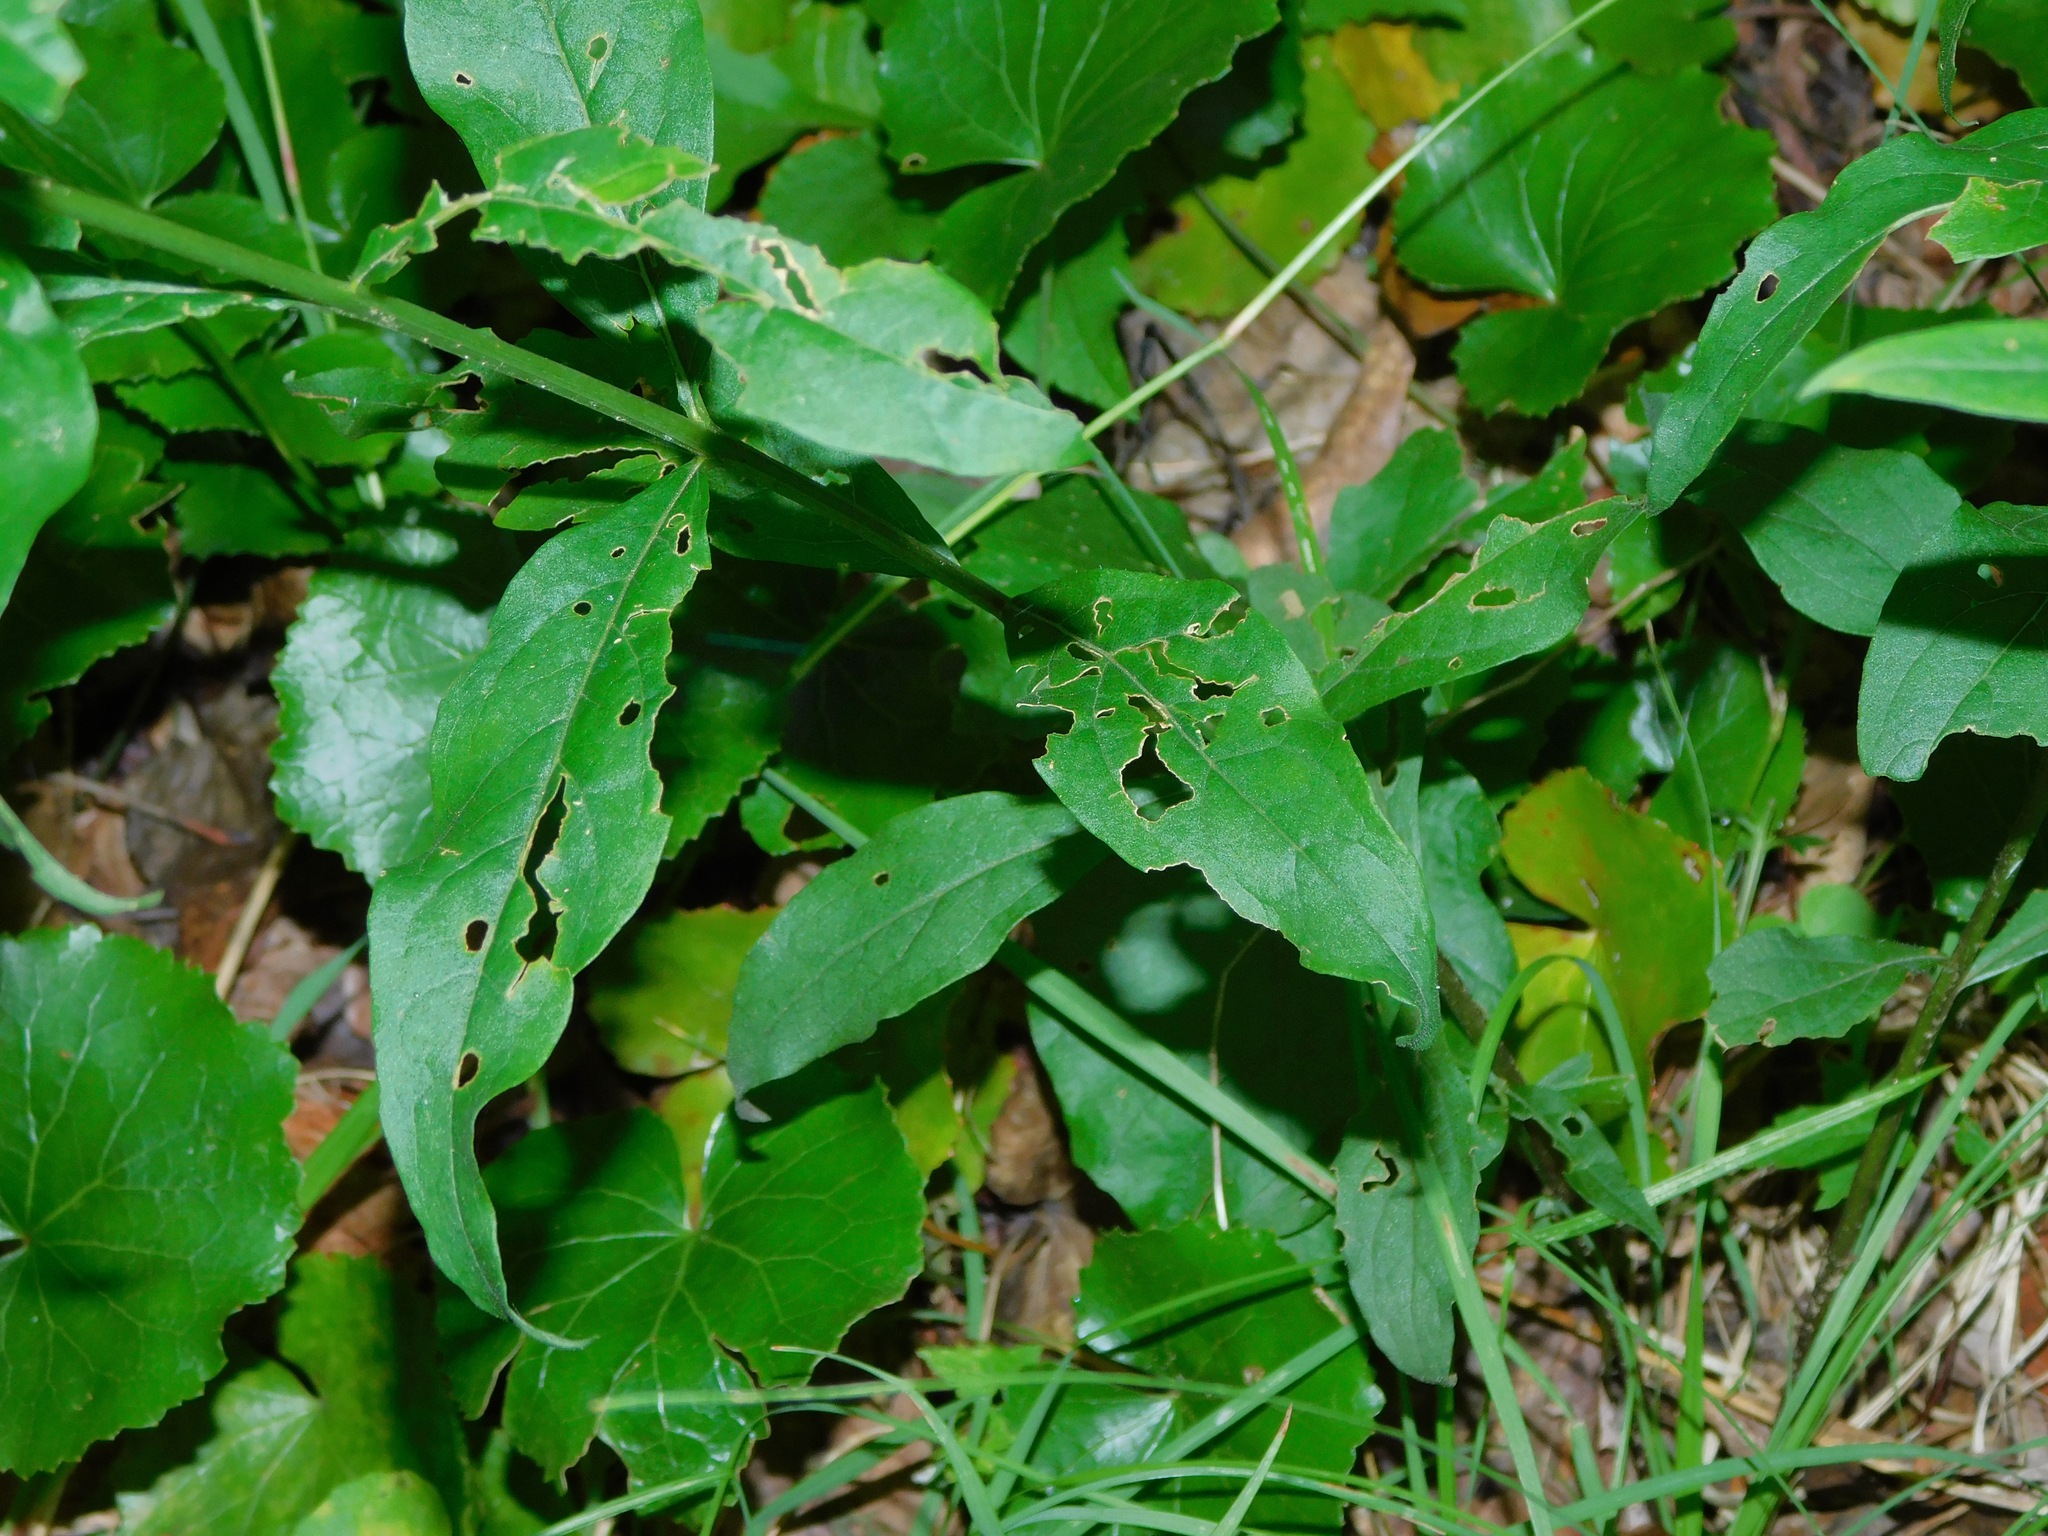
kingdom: Plantae
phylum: Tracheophyta
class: Magnoliopsida
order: Lamiales
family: Orobanchaceae
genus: Aureolaria
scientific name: Aureolaria levigata
